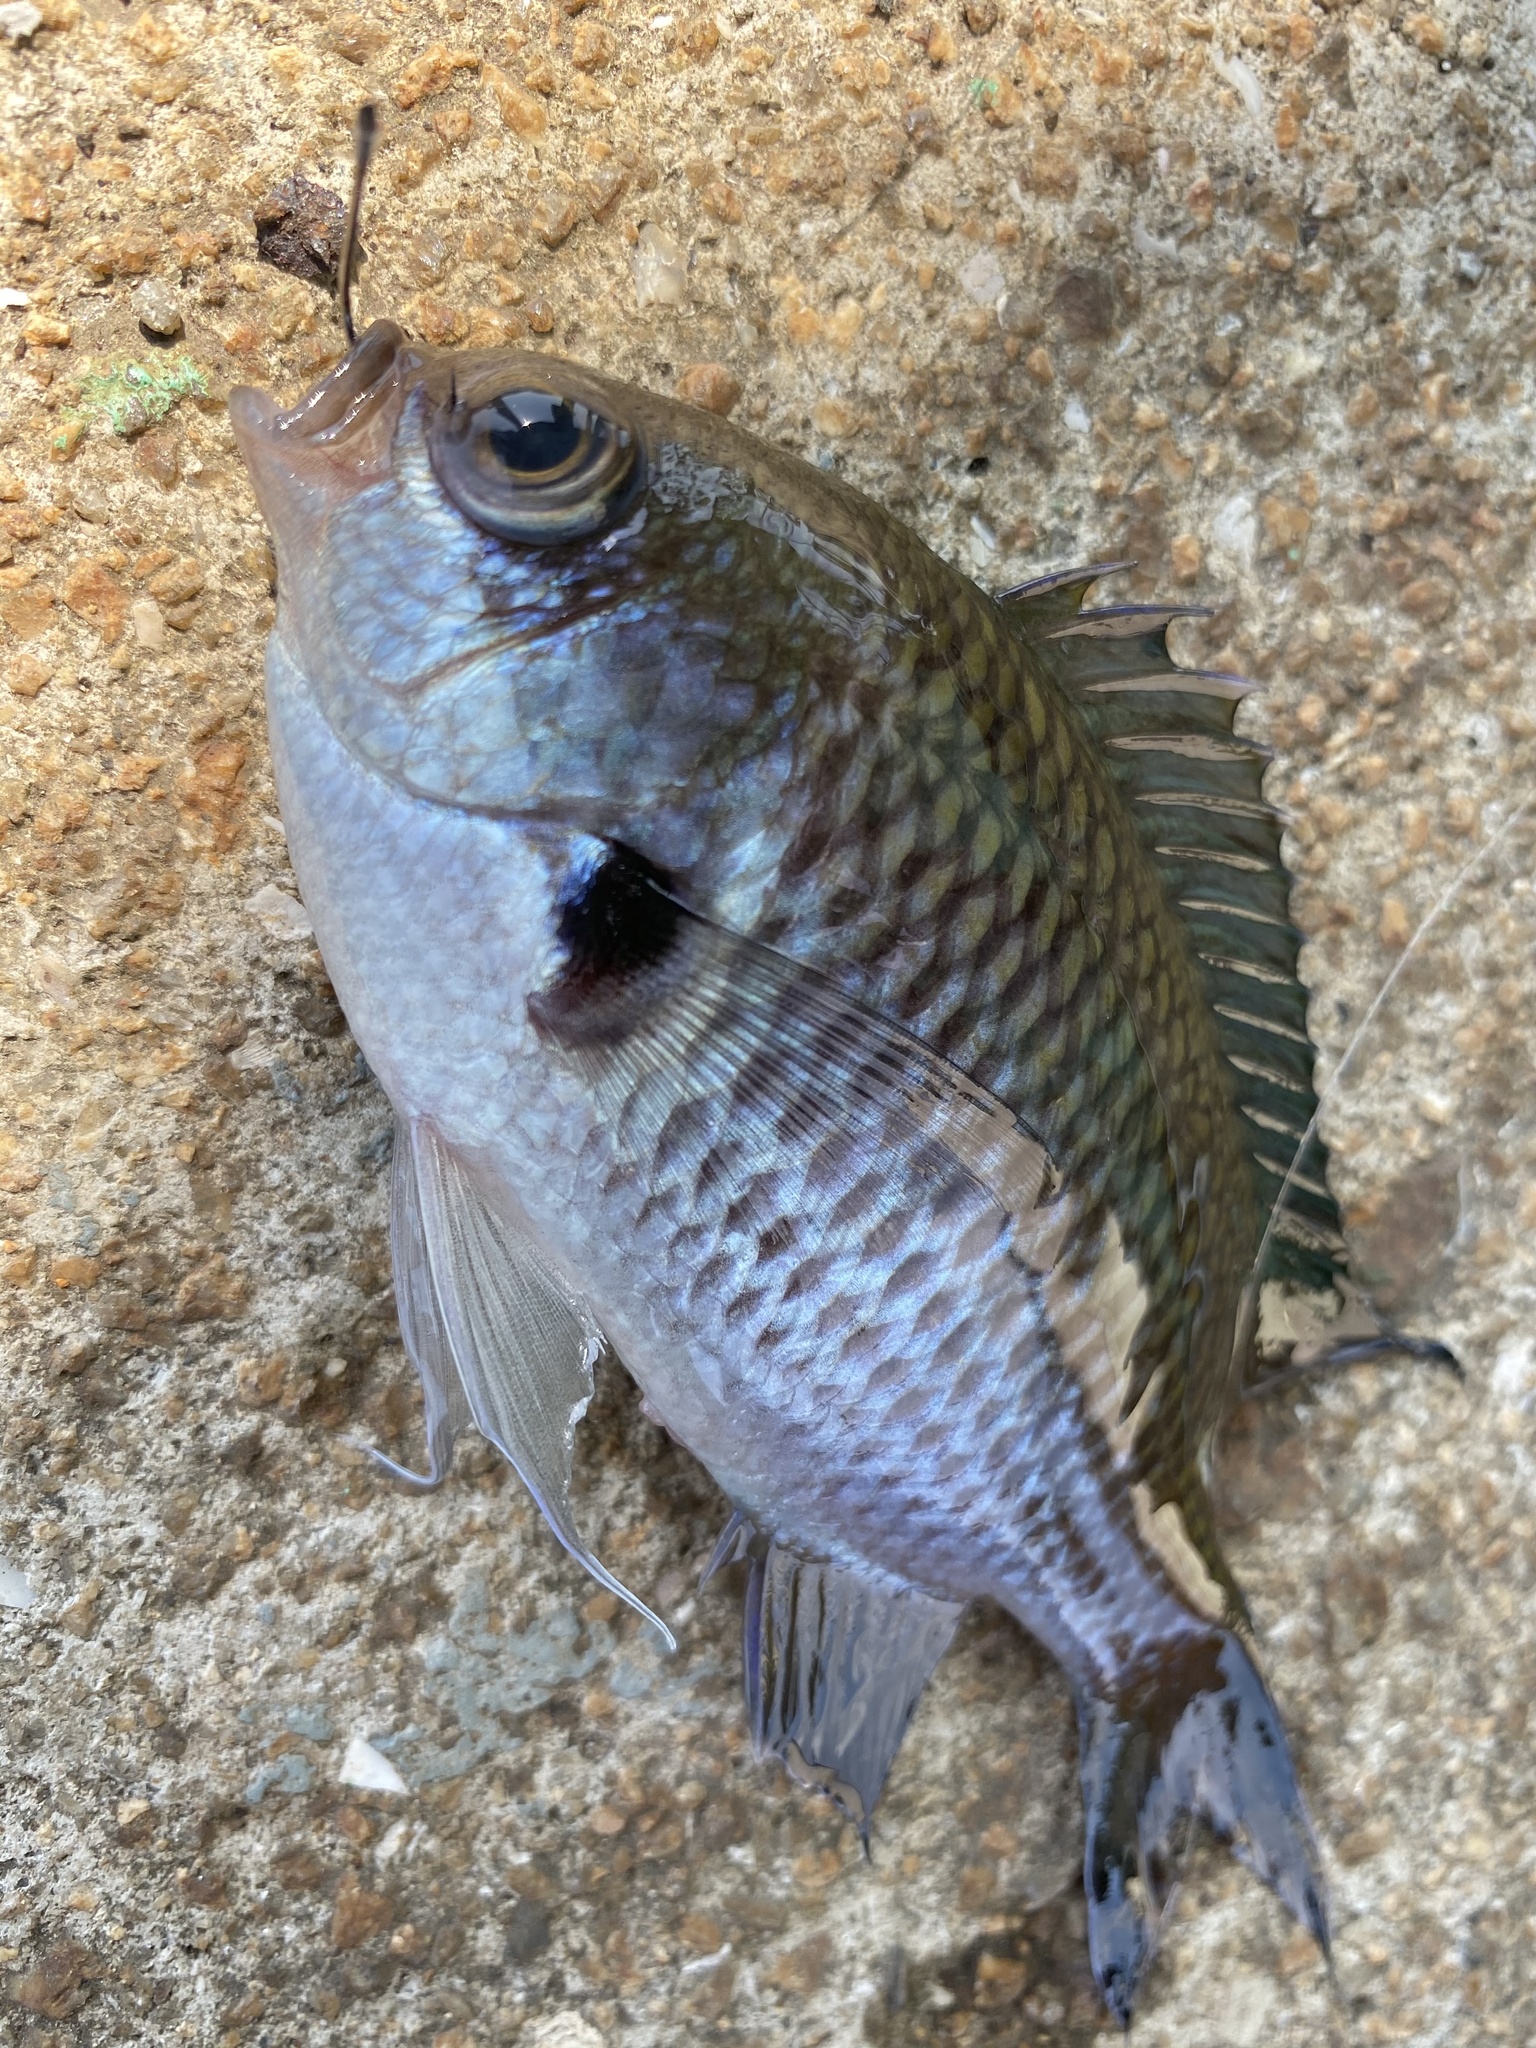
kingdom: Animalia
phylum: Chordata
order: Perciformes
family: Pomacentridae
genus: Chromis
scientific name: Chromis notata
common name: Pearl-spot chromis
